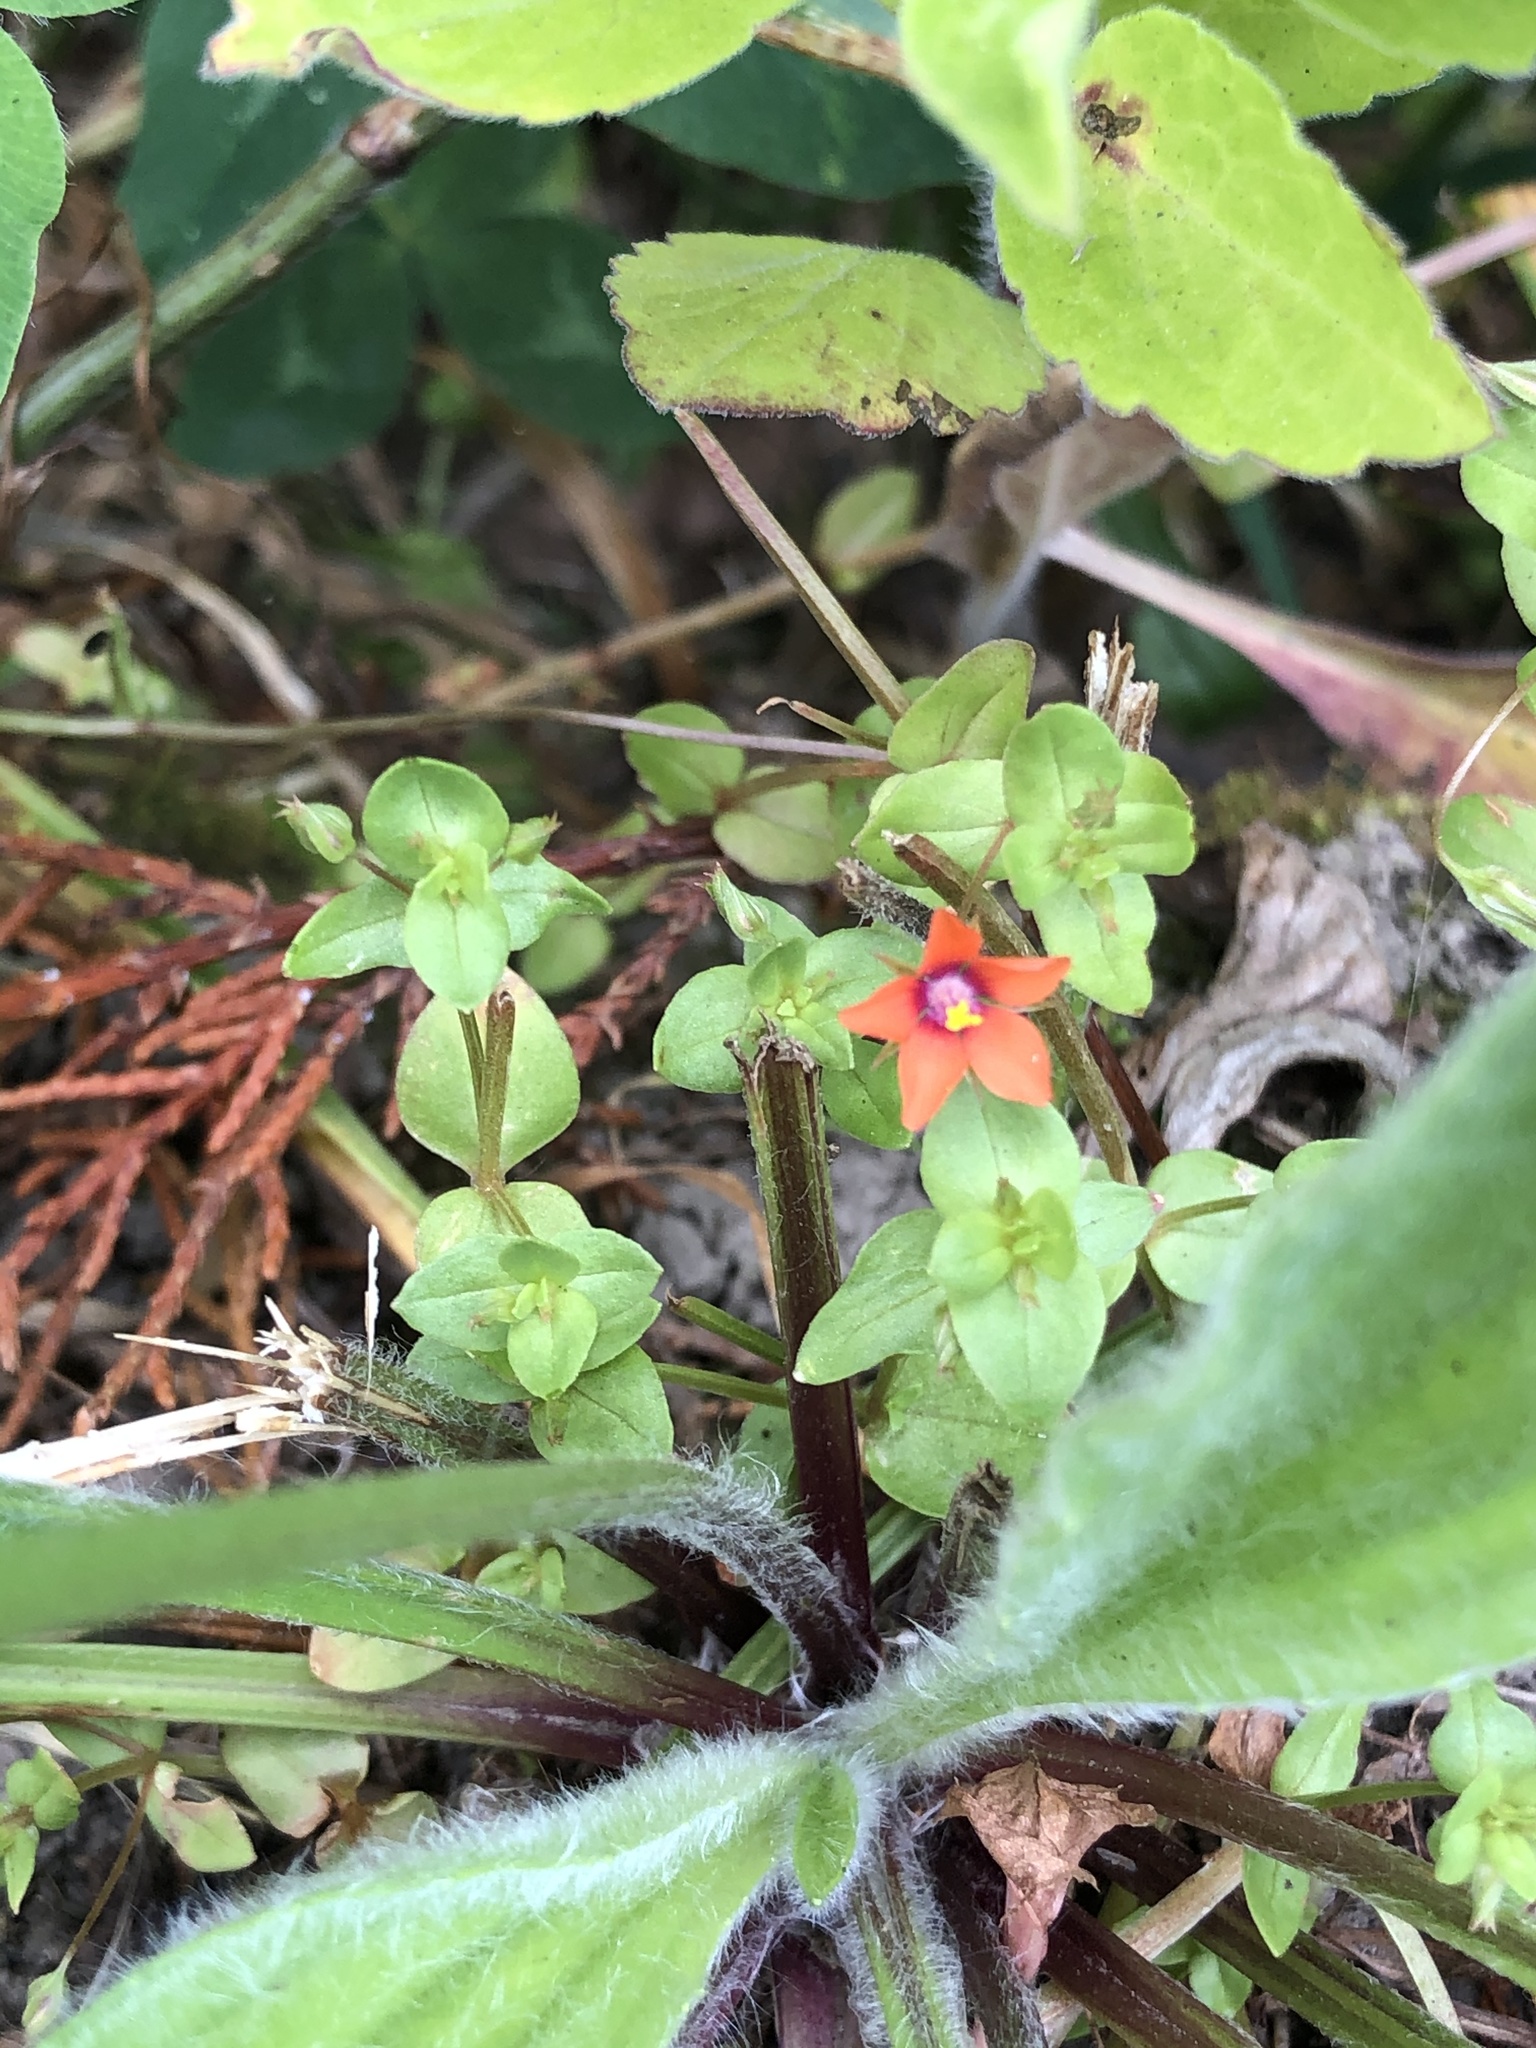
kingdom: Plantae
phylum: Tracheophyta
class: Magnoliopsida
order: Ericales
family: Primulaceae
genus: Lysimachia
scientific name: Lysimachia arvensis
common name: Scarlet pimpernel
